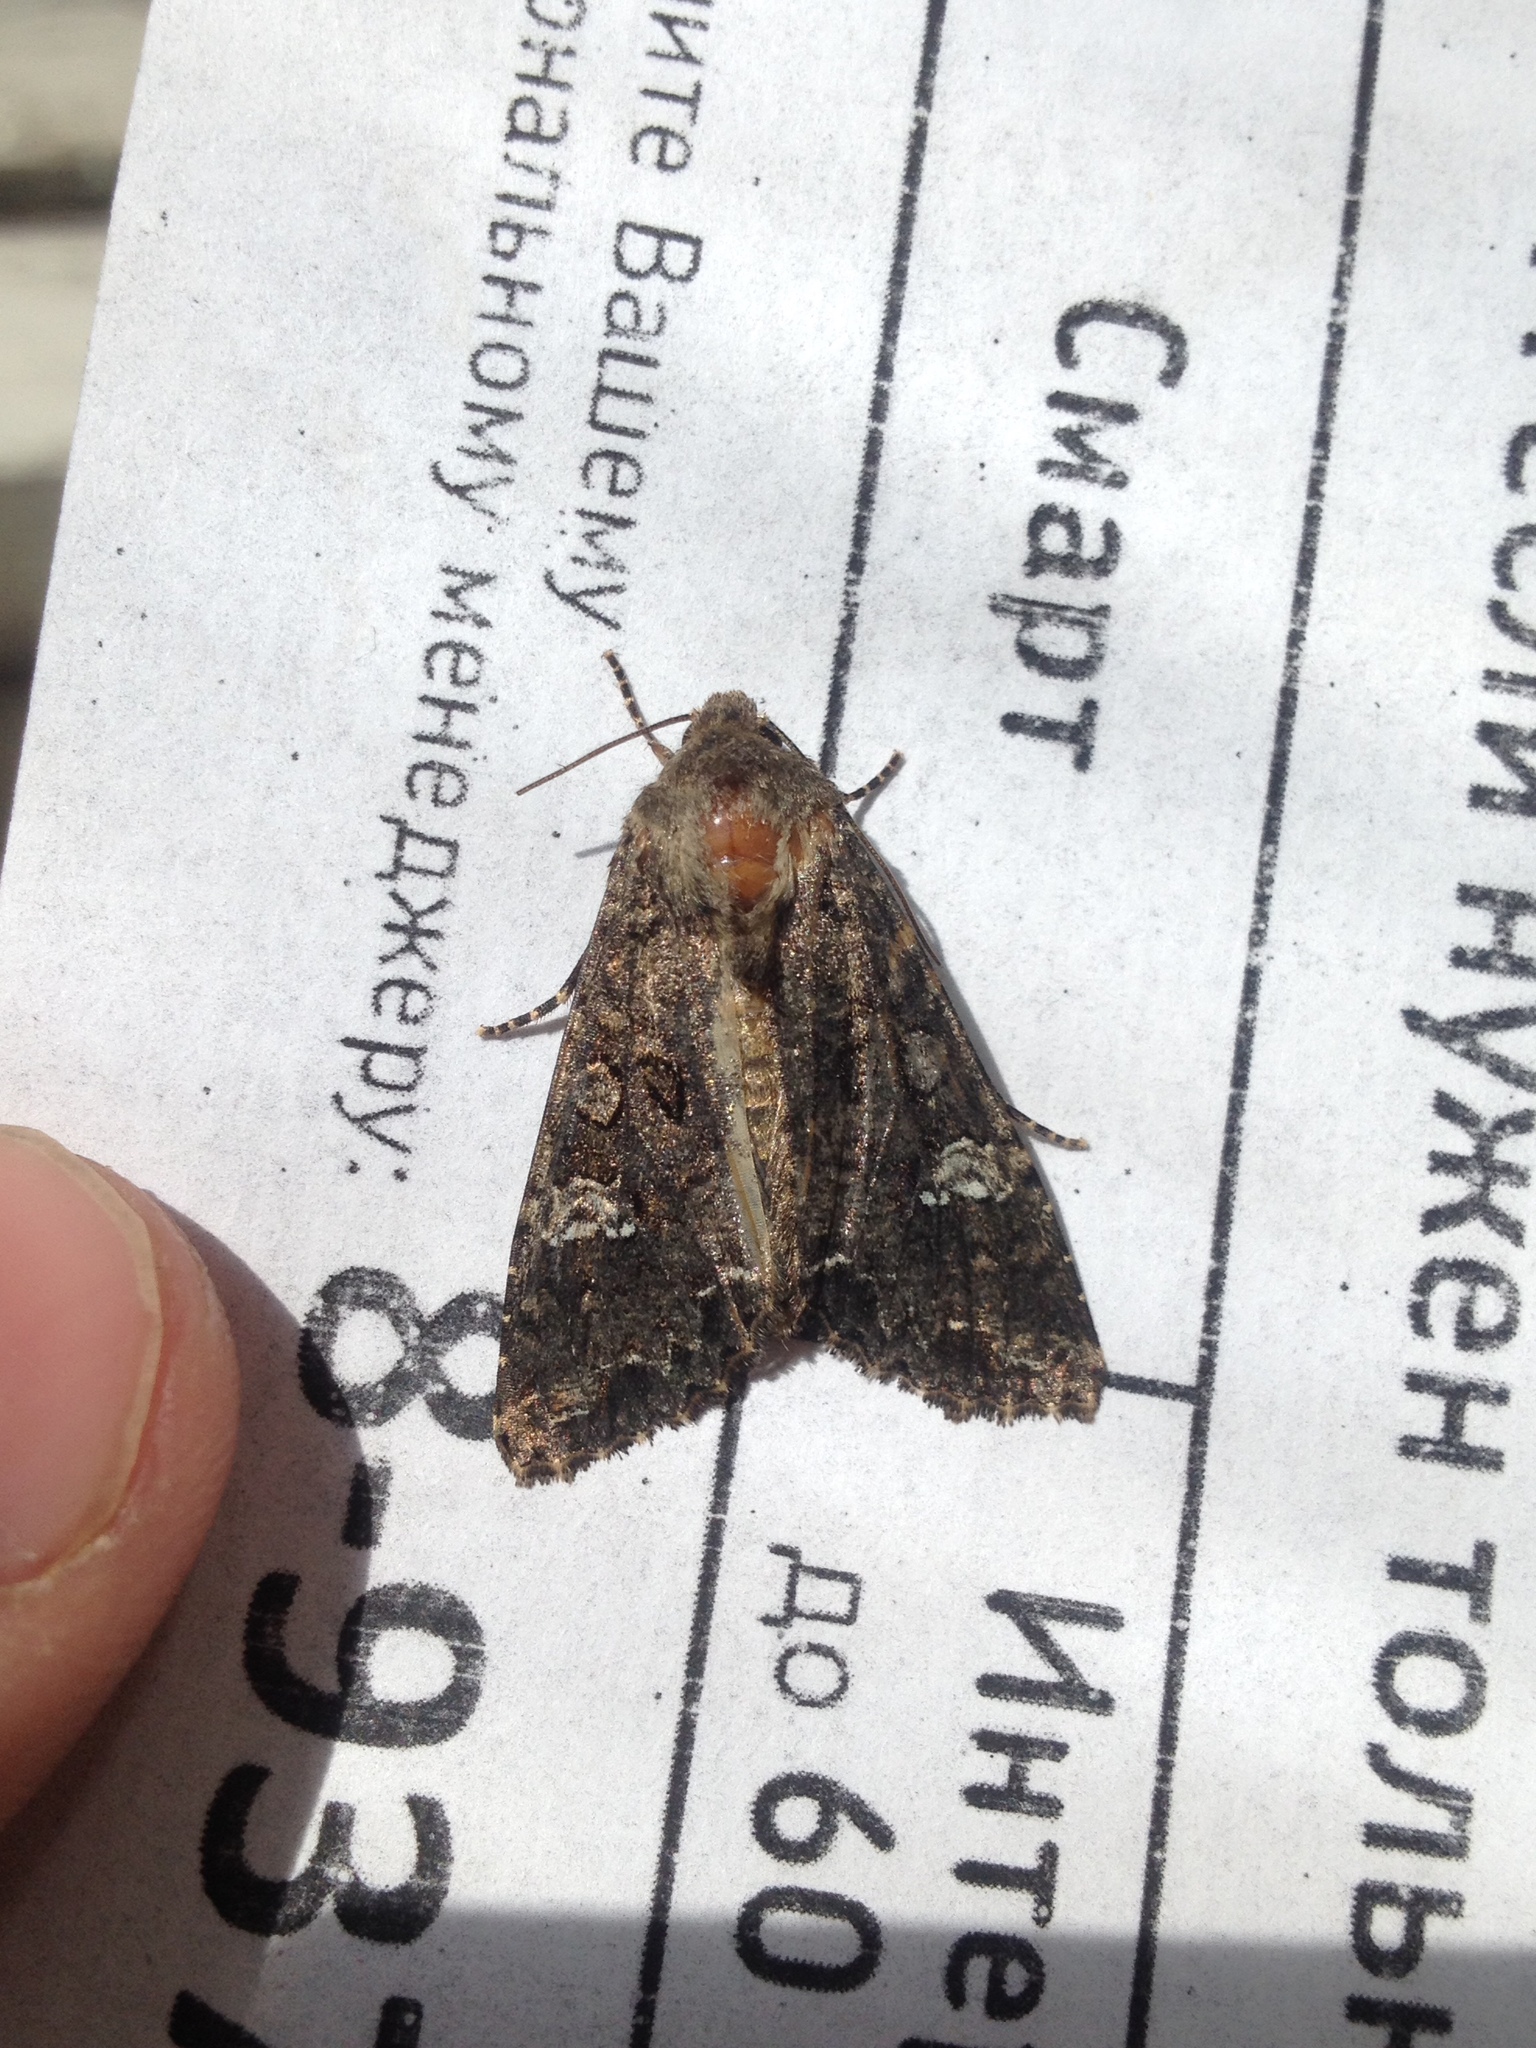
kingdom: Animalia
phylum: Arthropoda
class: Insecta
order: Lepidoptera
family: Noctuidae
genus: Mamestra
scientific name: Mamestra brassicae
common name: Cabbage moth
